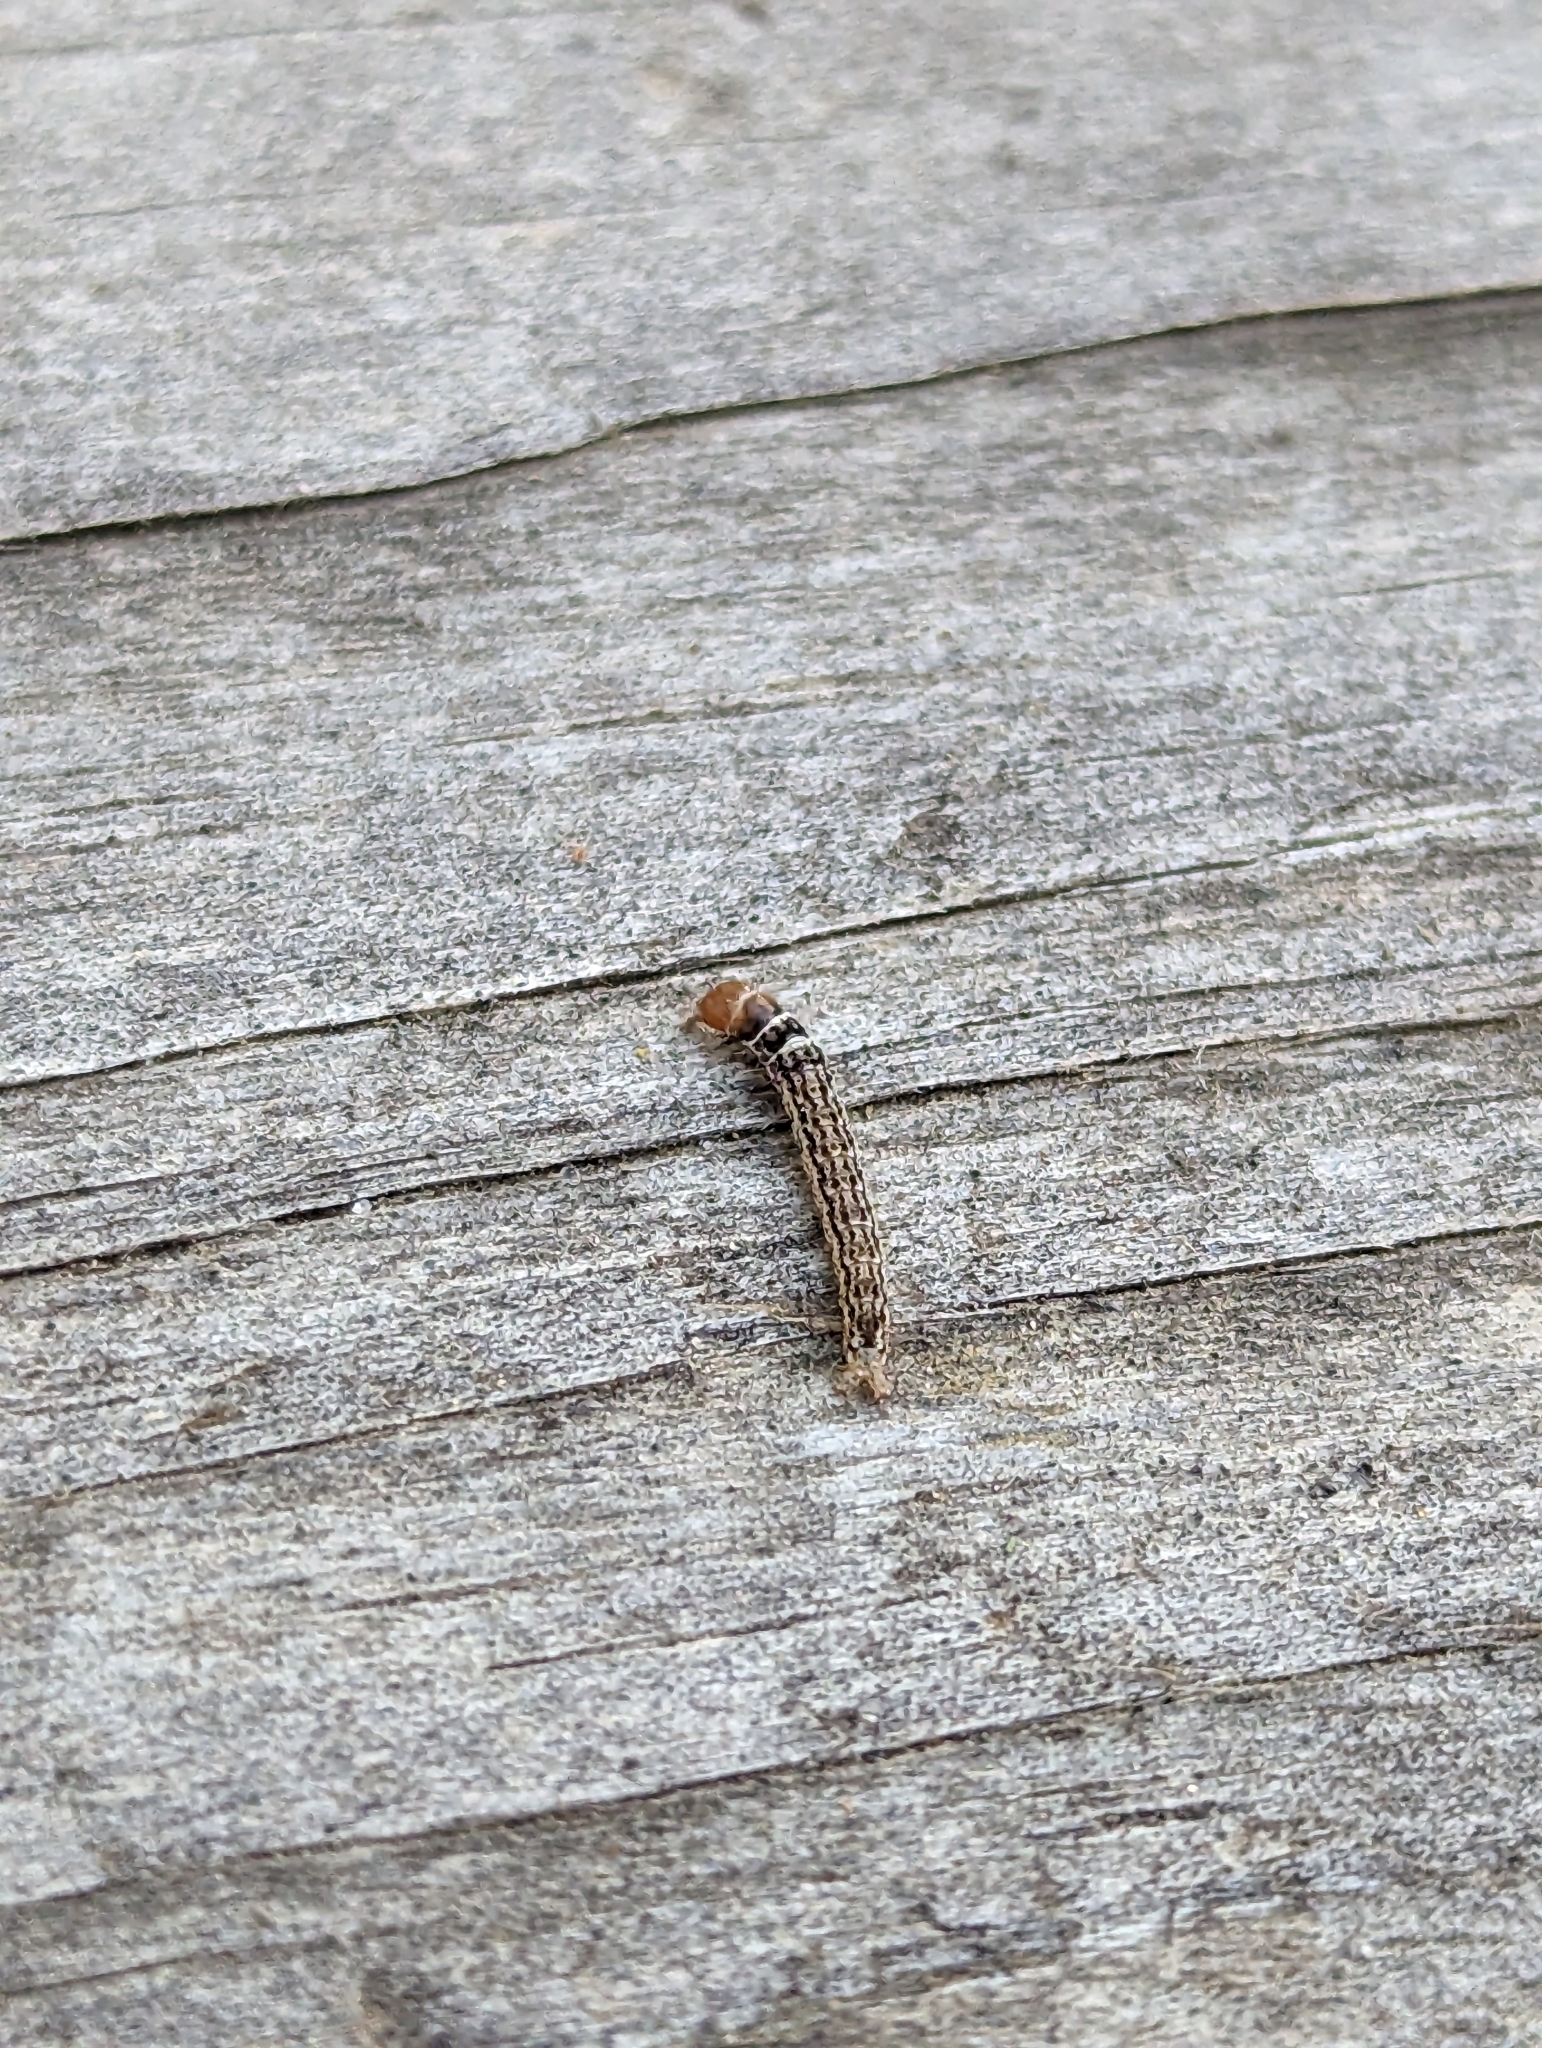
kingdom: Animalia
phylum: Arthropoda
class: Insecta
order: Lepidoptera
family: Notodontidae
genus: Schizura
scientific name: Schizura
